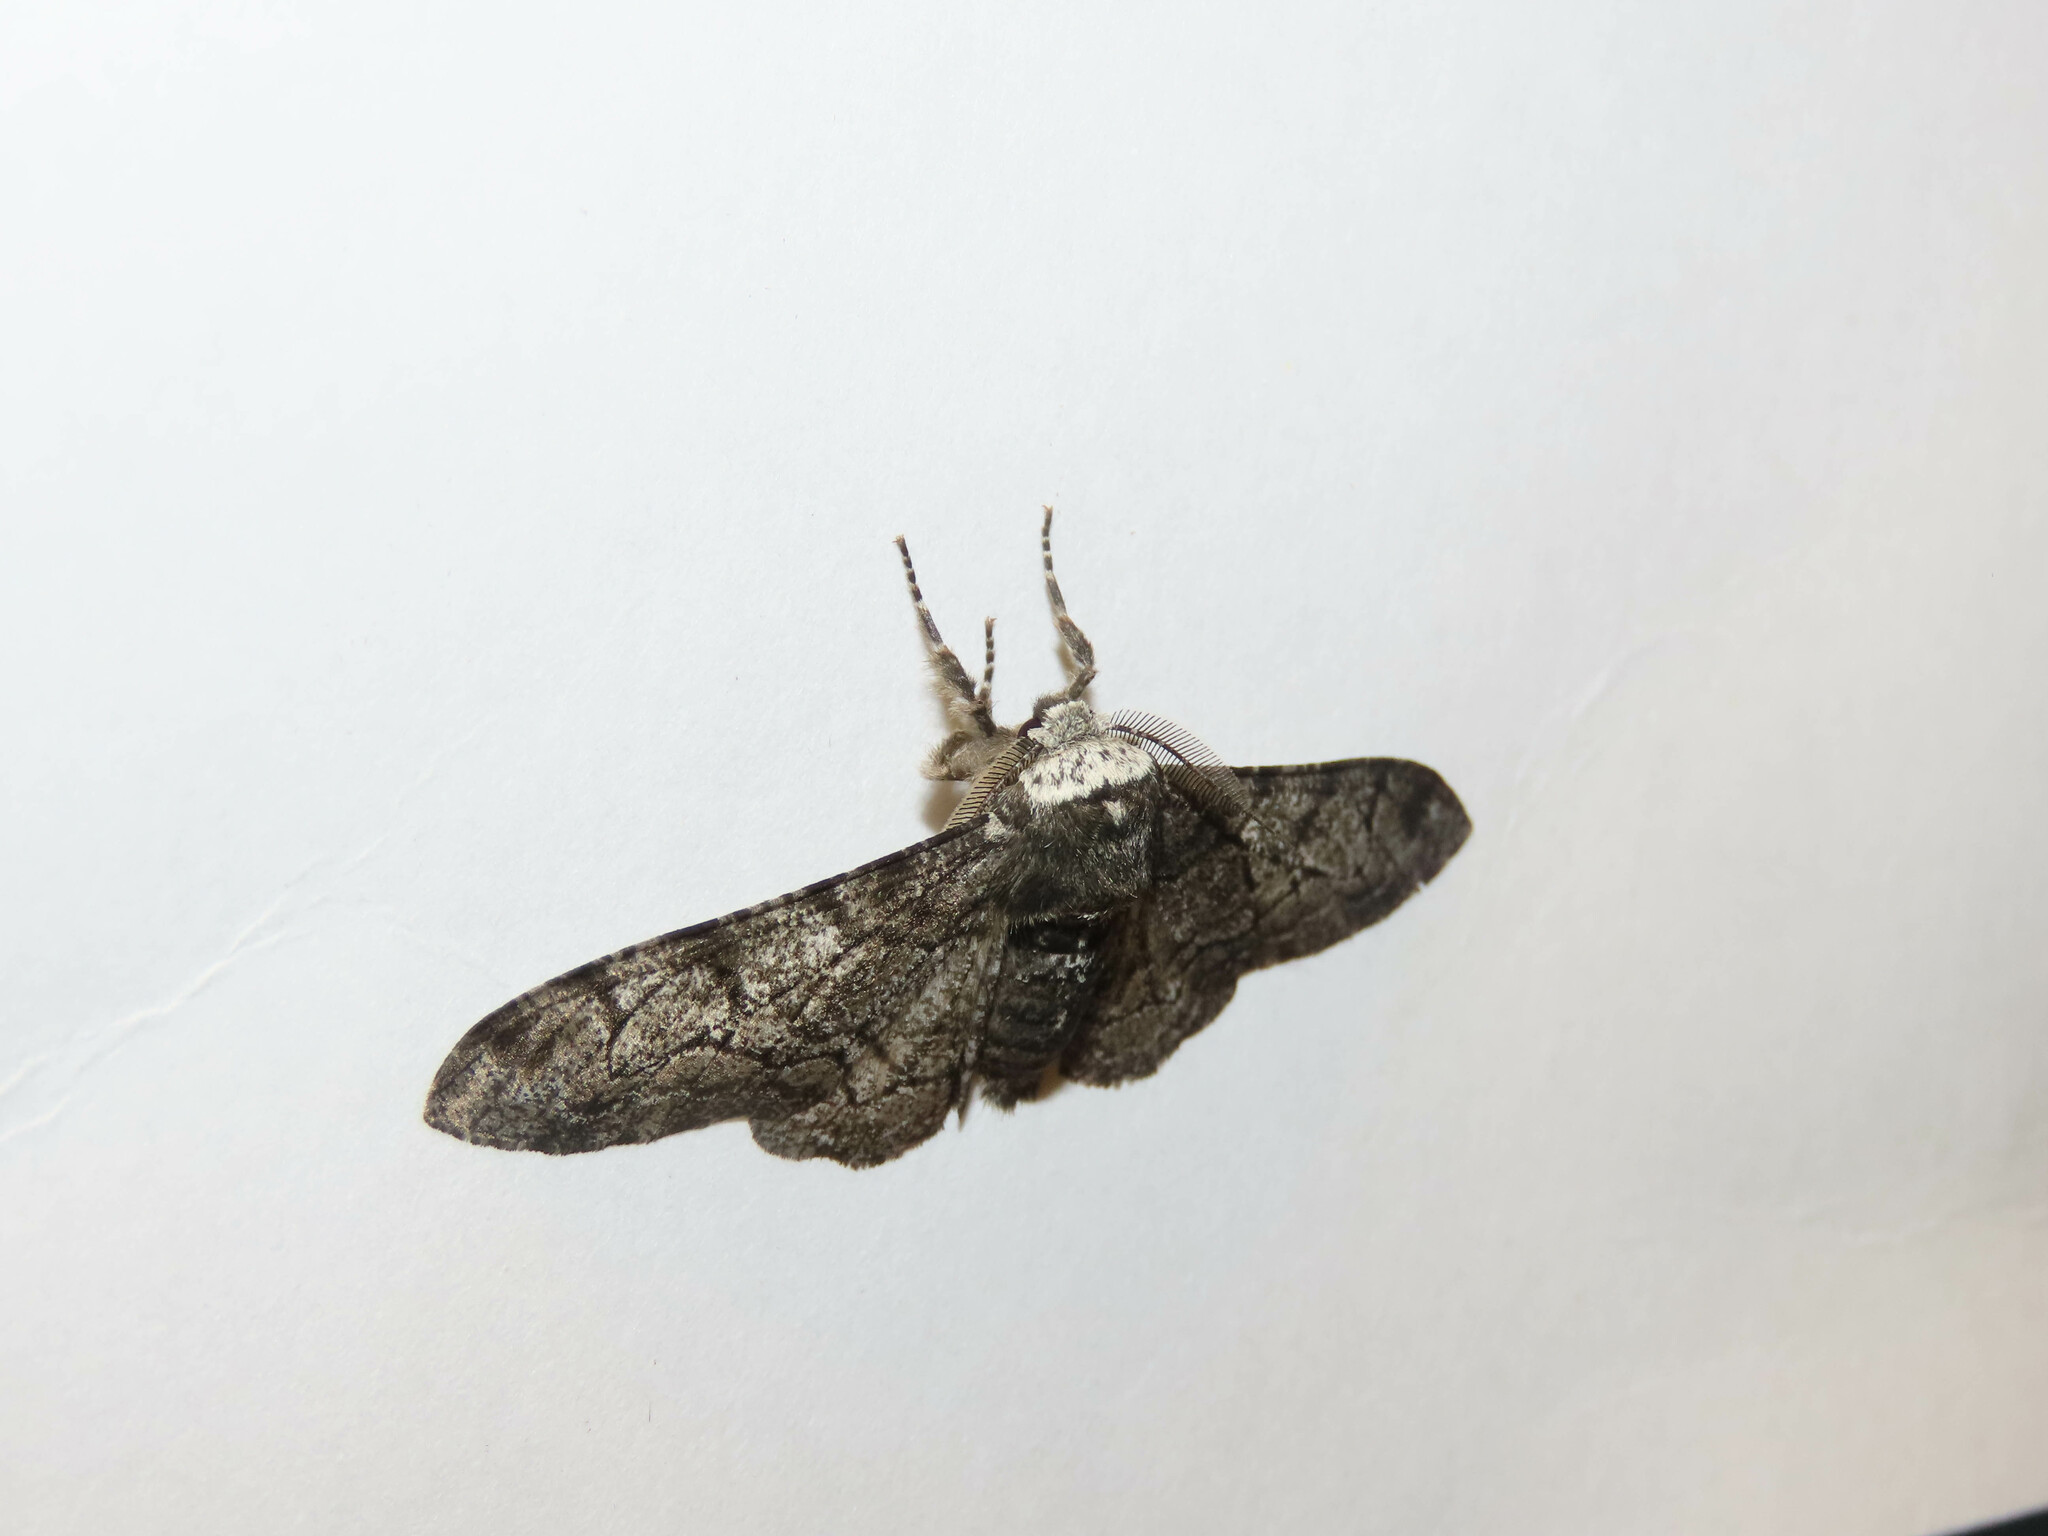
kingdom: Animalia
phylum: Arthropoda
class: Insecta
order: Lepidoptera
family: Geometridae
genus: Biston
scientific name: Biston betularia
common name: Peppered moth
